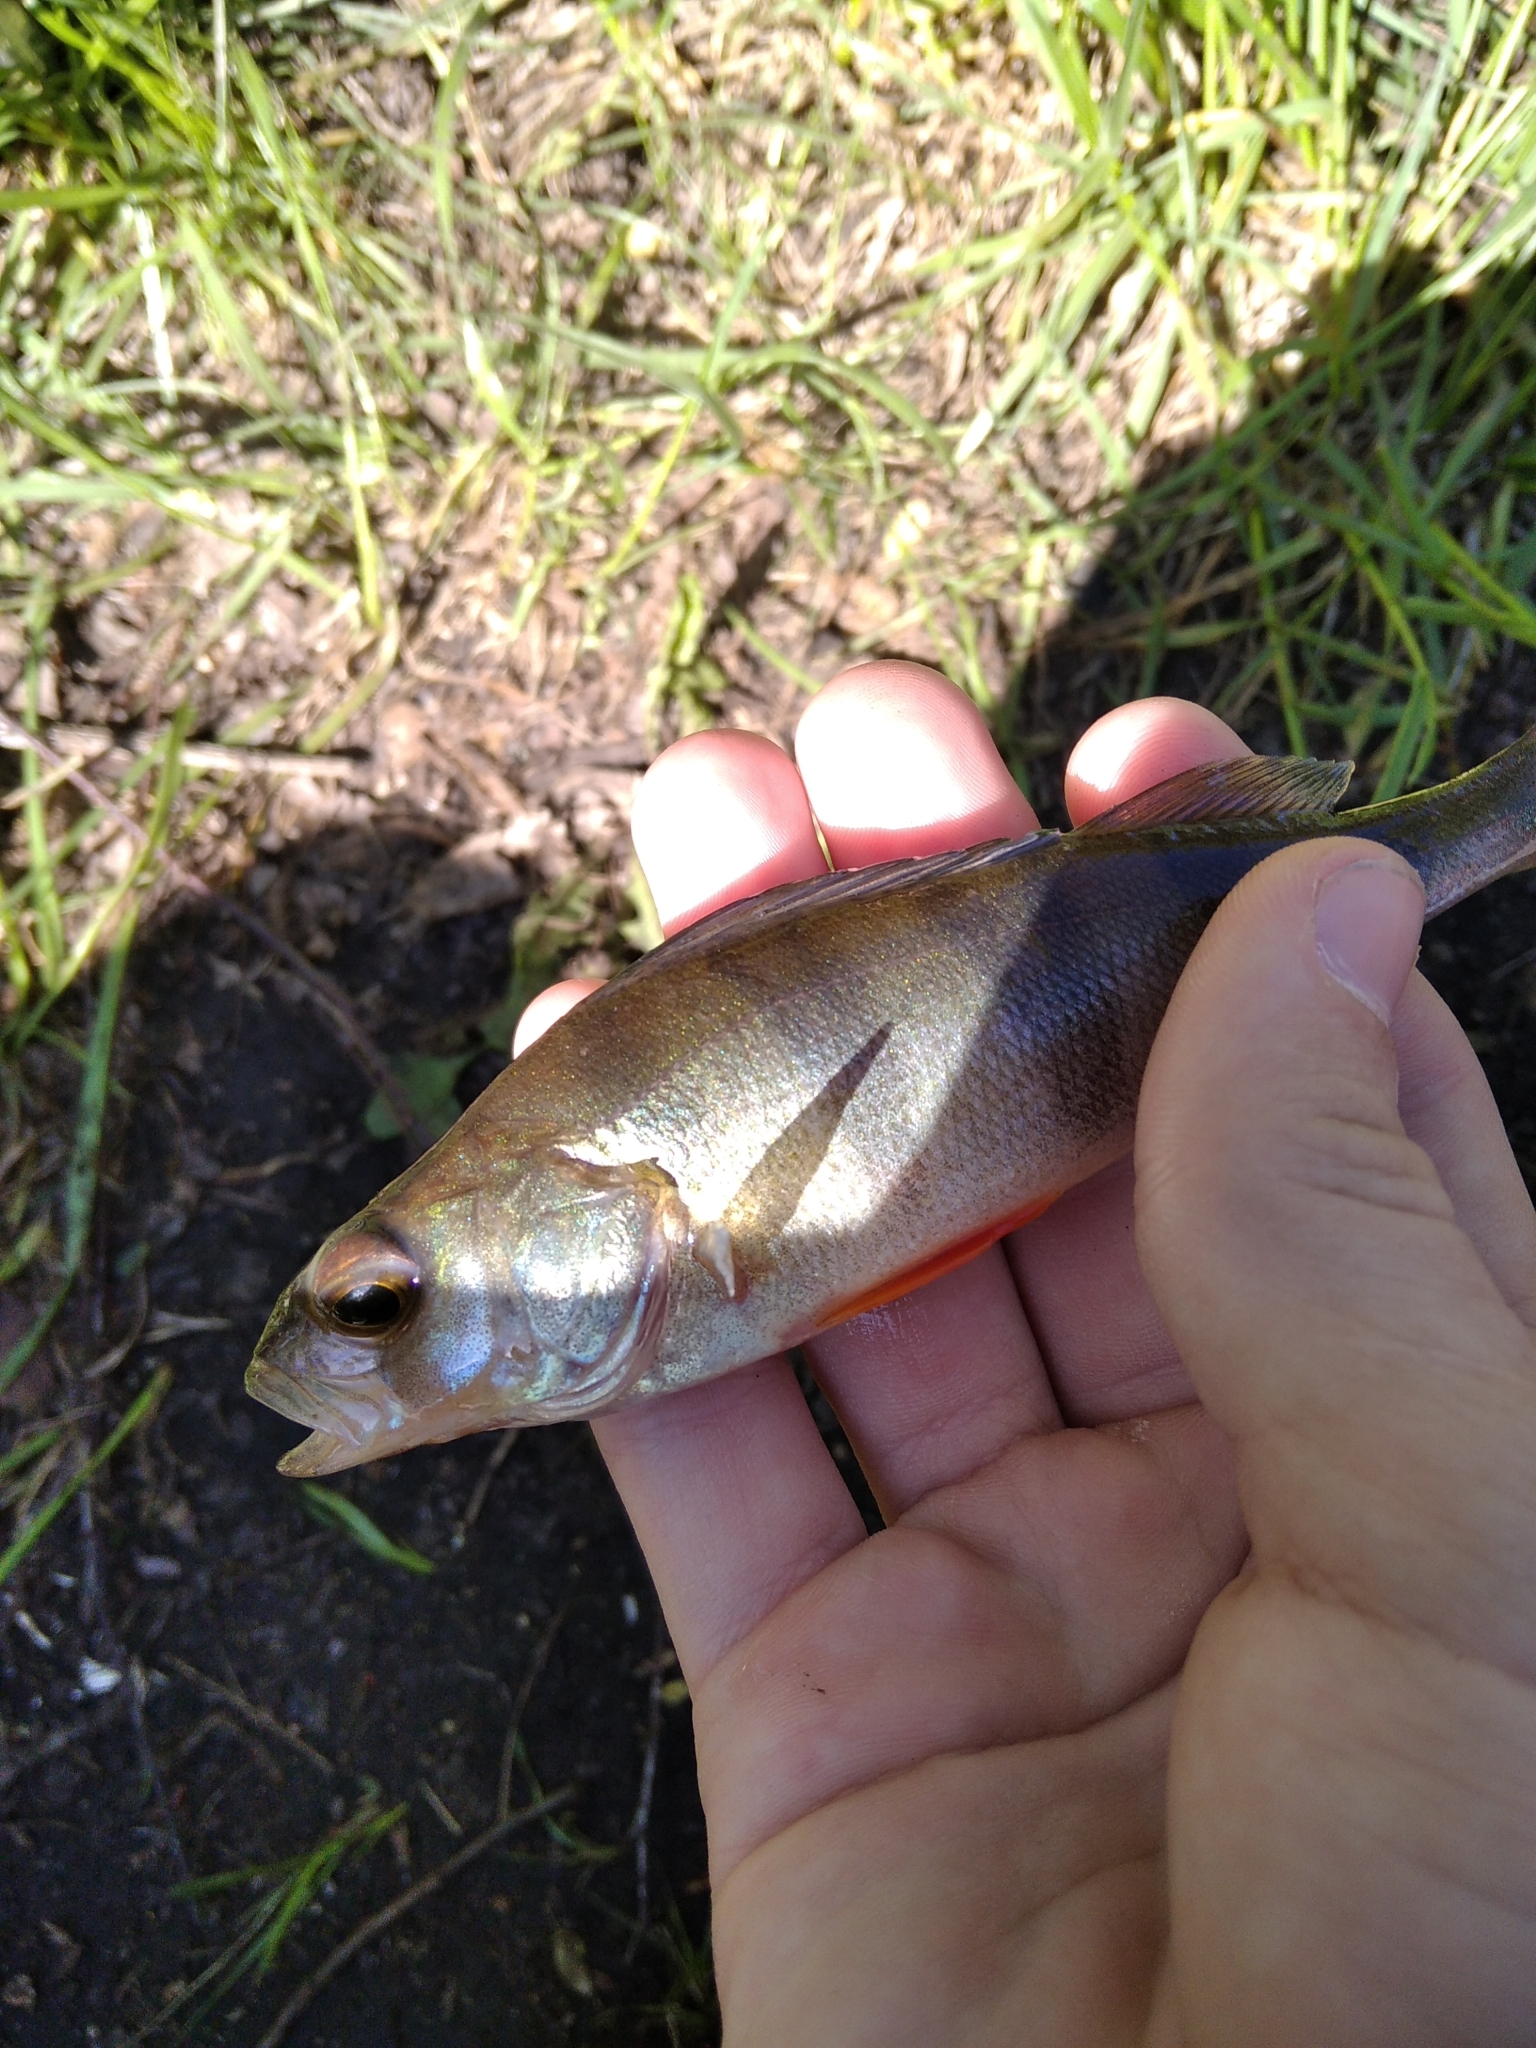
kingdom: Animalia
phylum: Chordata
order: Perciformes
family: Percidae
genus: Perca
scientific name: Perca fluviatilis
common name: Perch
